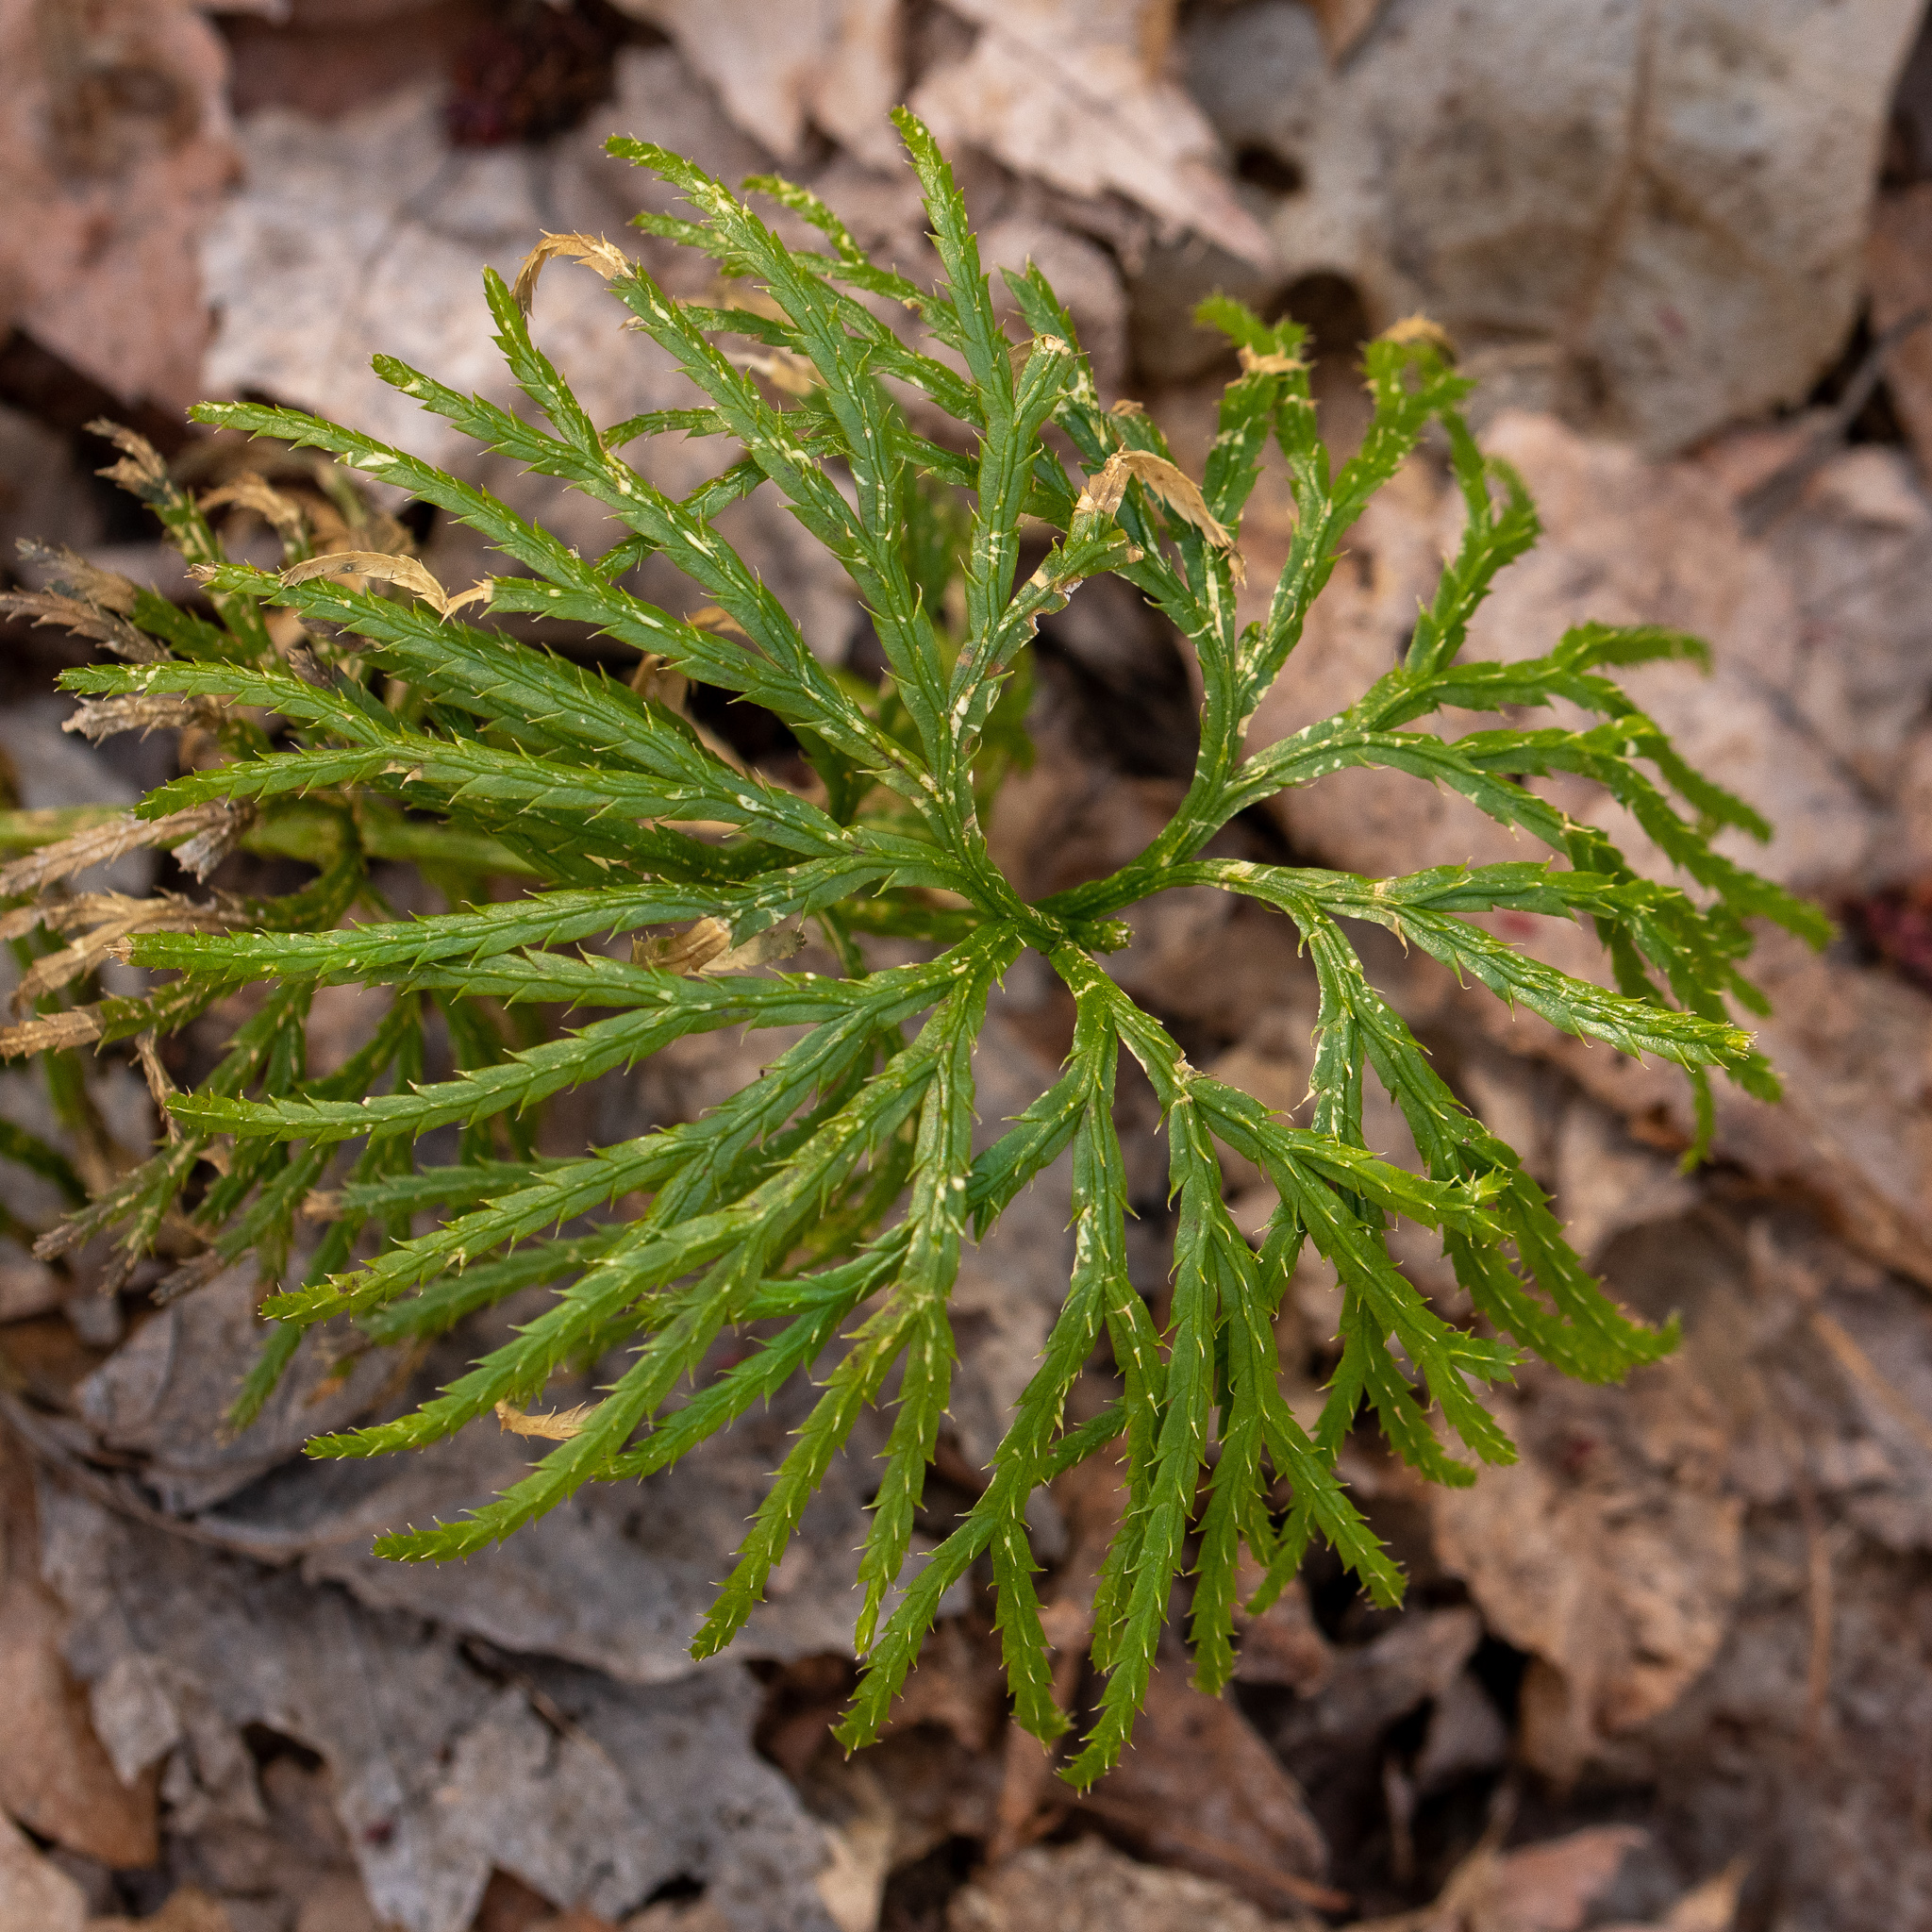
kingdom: Plantae
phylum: Tracheophyta
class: Lycopodiopsida
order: Lycopodiales
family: Lycopodiaceae
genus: Diphasiastrum
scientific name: Diphasiastrum digitatum
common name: Southern running-pine
